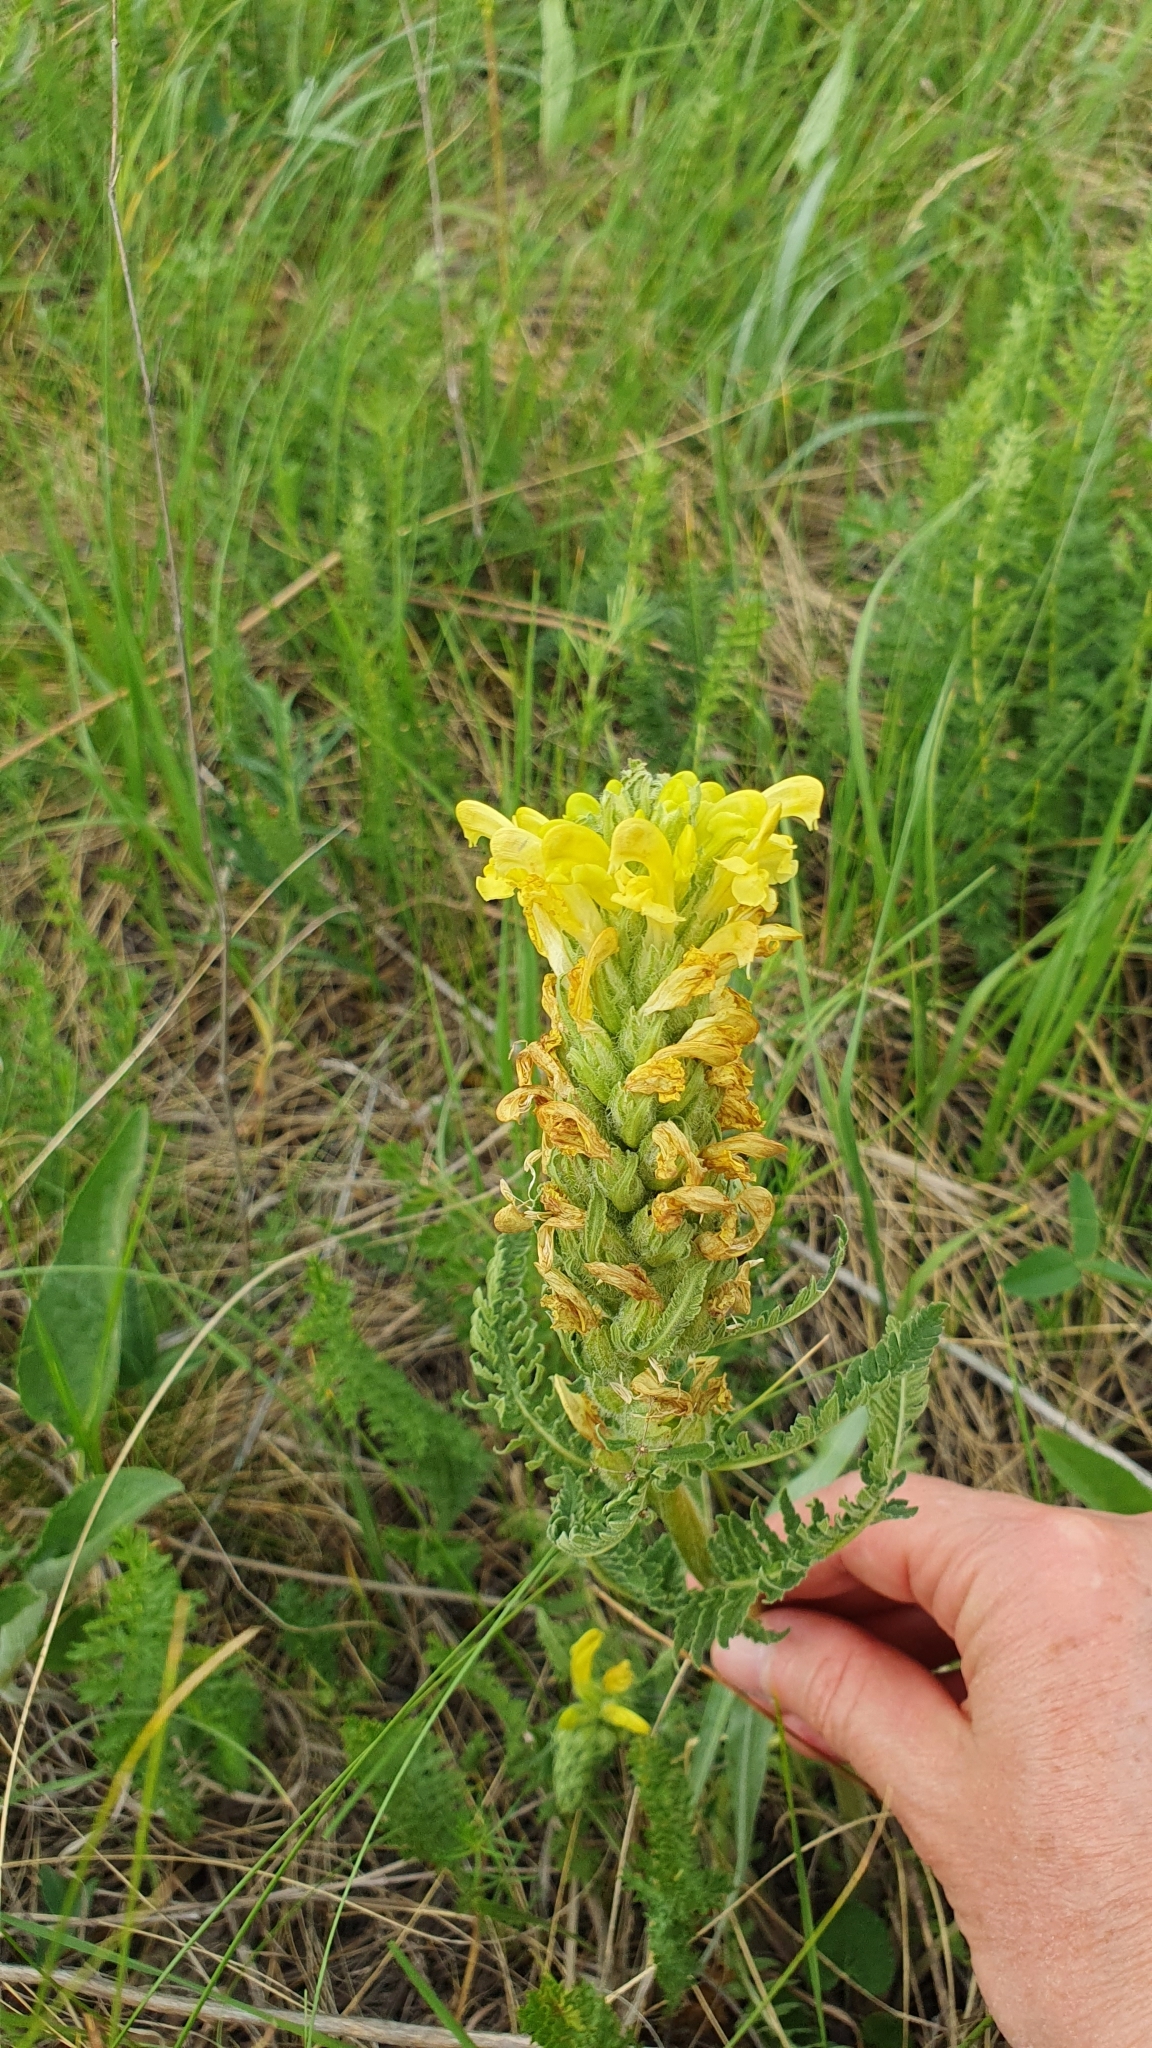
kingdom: Plantae
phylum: Tracheophyta
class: Magnoliopsida
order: Lamiales
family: Orobanchaceae
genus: Pedicularis
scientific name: Pedicularis kaufmannii
